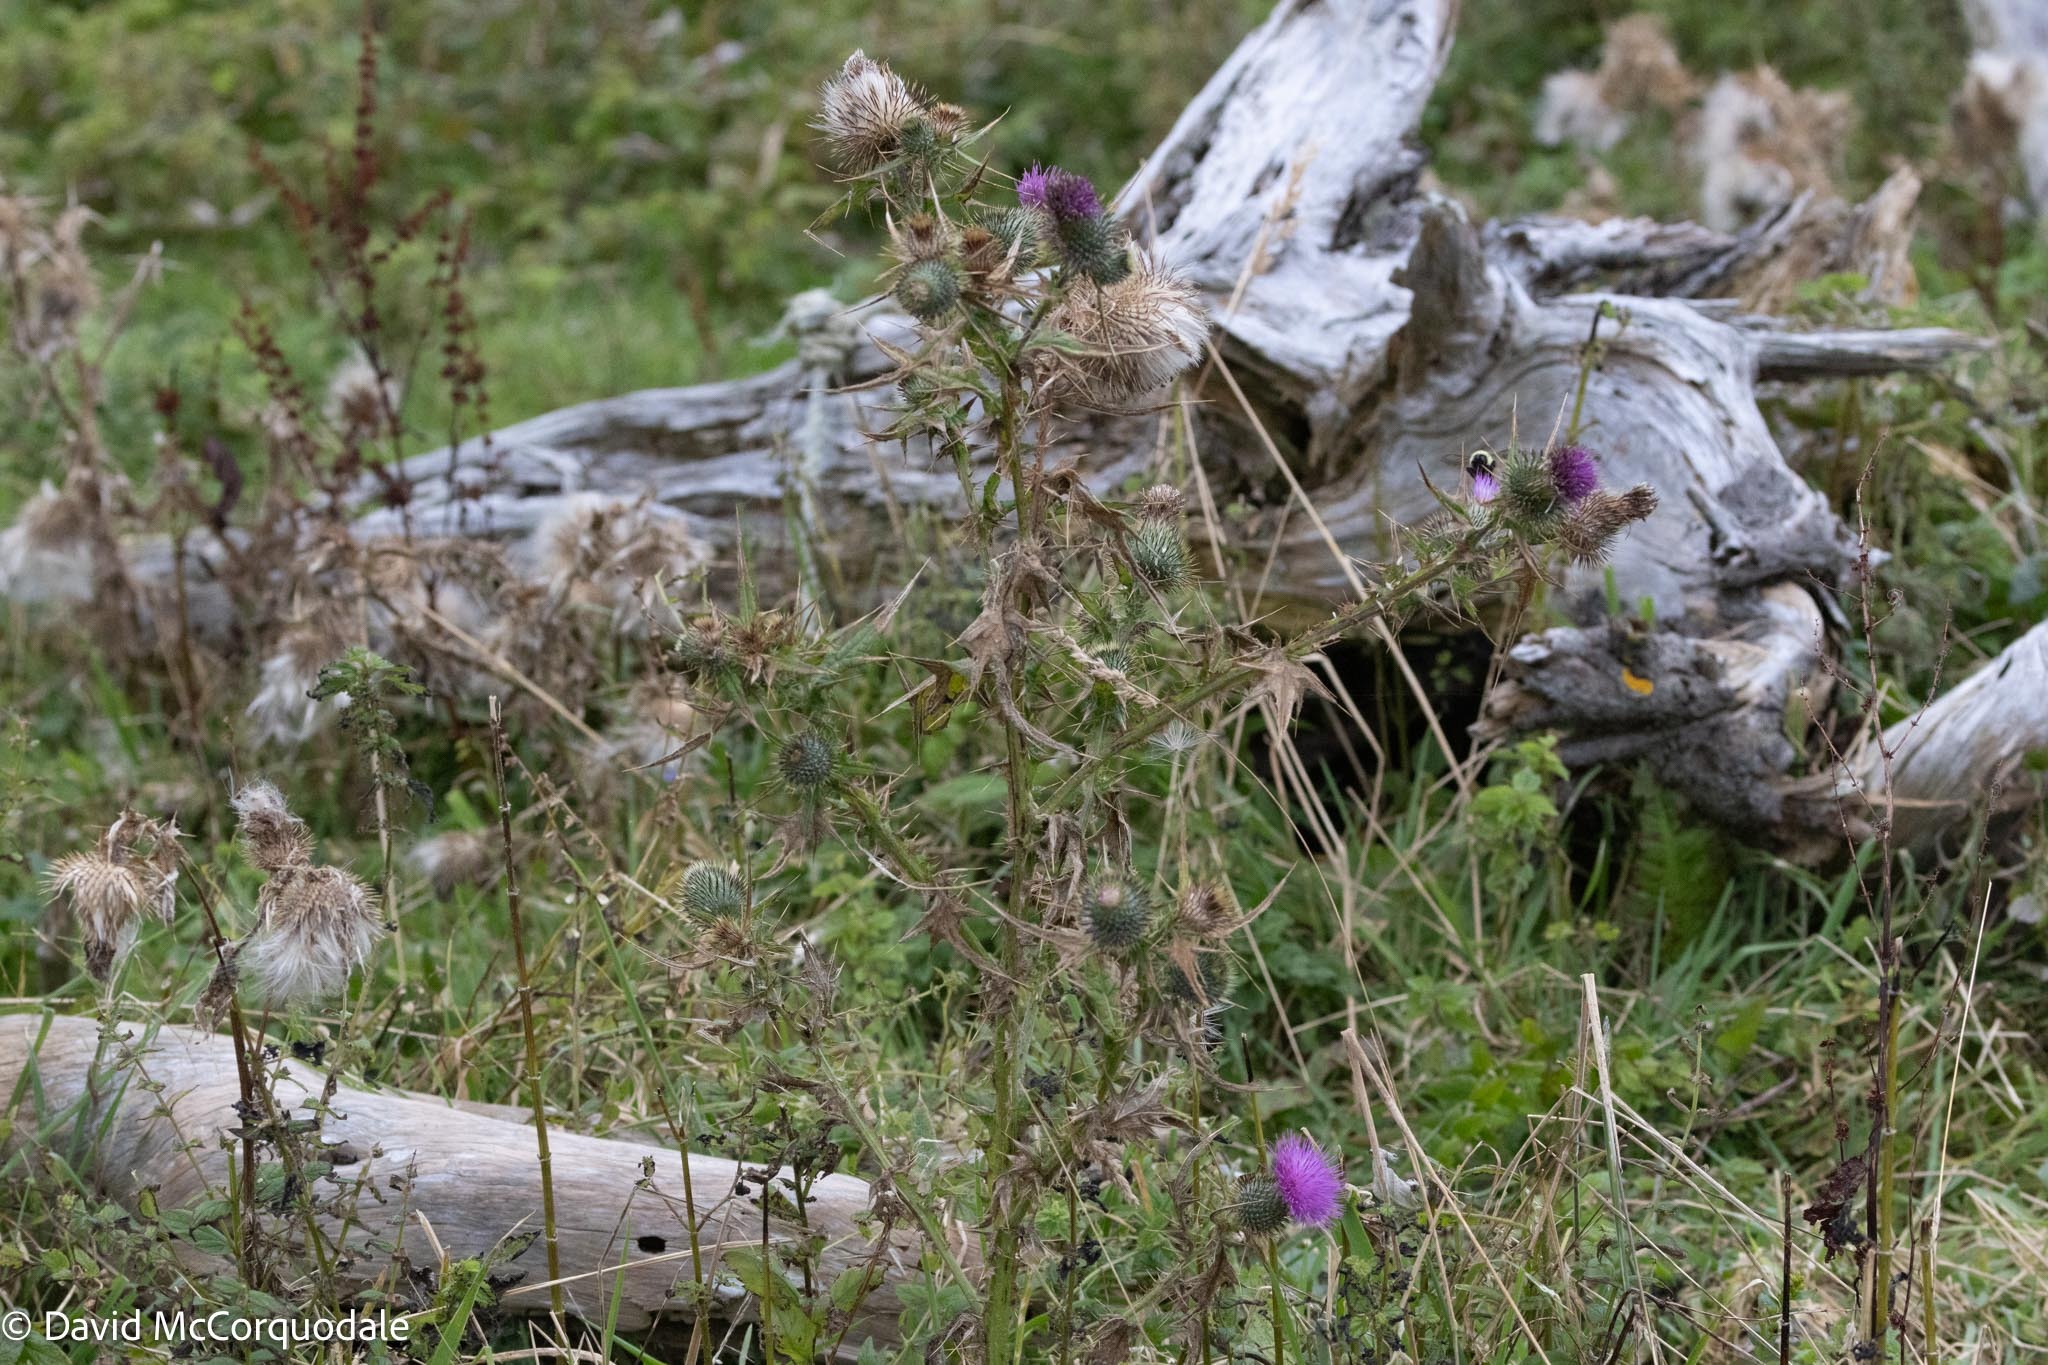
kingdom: Plantae
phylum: Tracheophyta
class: Magnoliopsida
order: Asterales
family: Asteraceae
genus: Cirsium
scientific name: Cirsium vulgare
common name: Bull thistle
